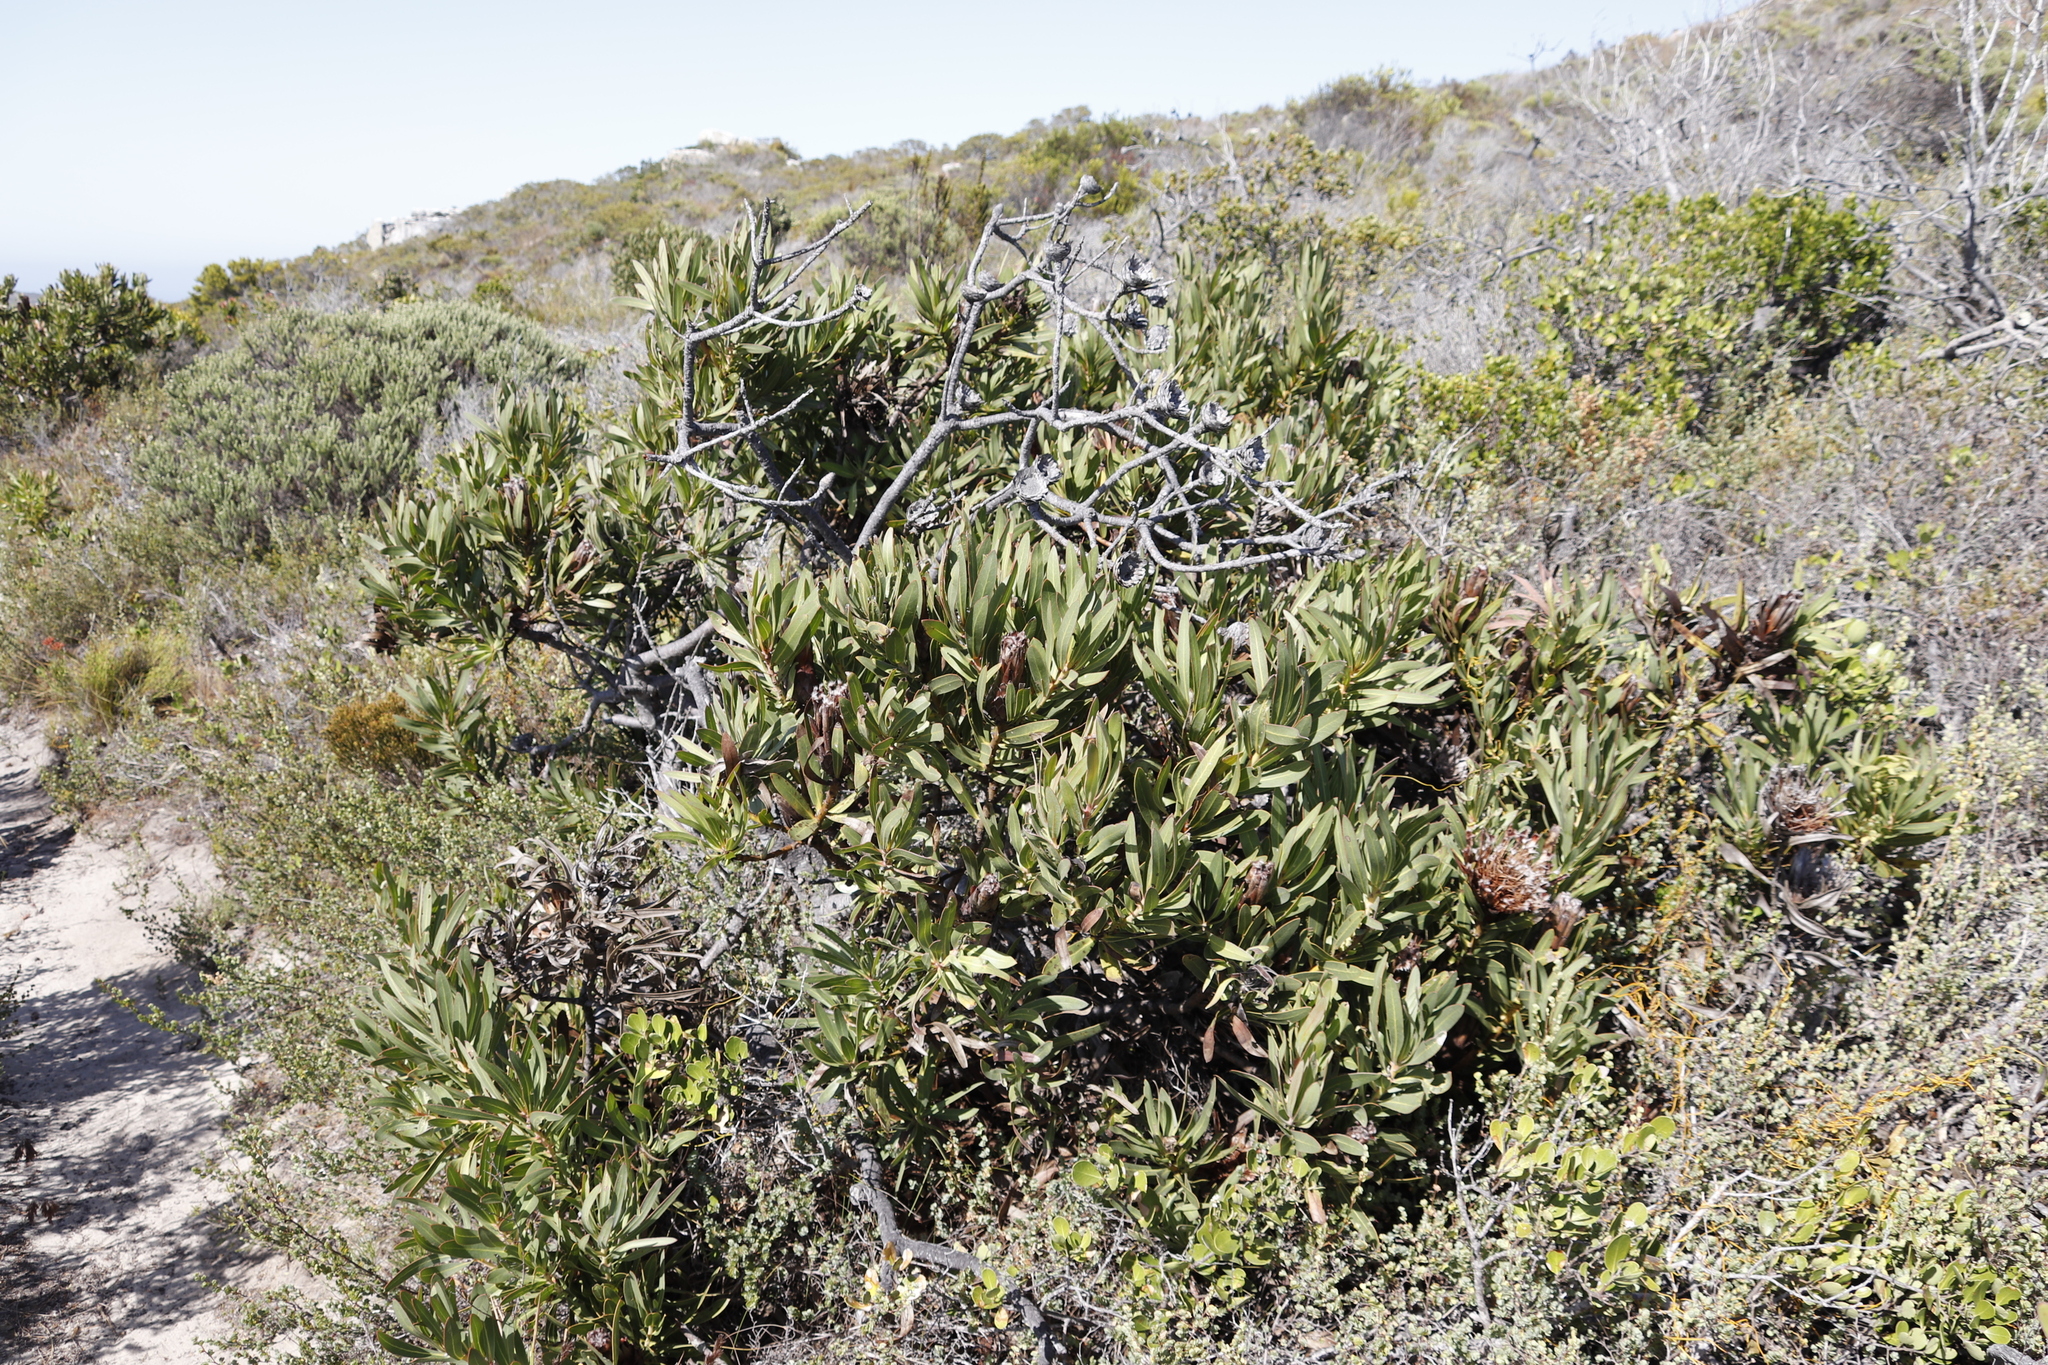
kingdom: Plantae
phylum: Tracheophyta
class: Magnoliopsida
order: Proteales
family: Proteaceae
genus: Protea
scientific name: Protea lepidocarpodendron
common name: Black-bearded protea
